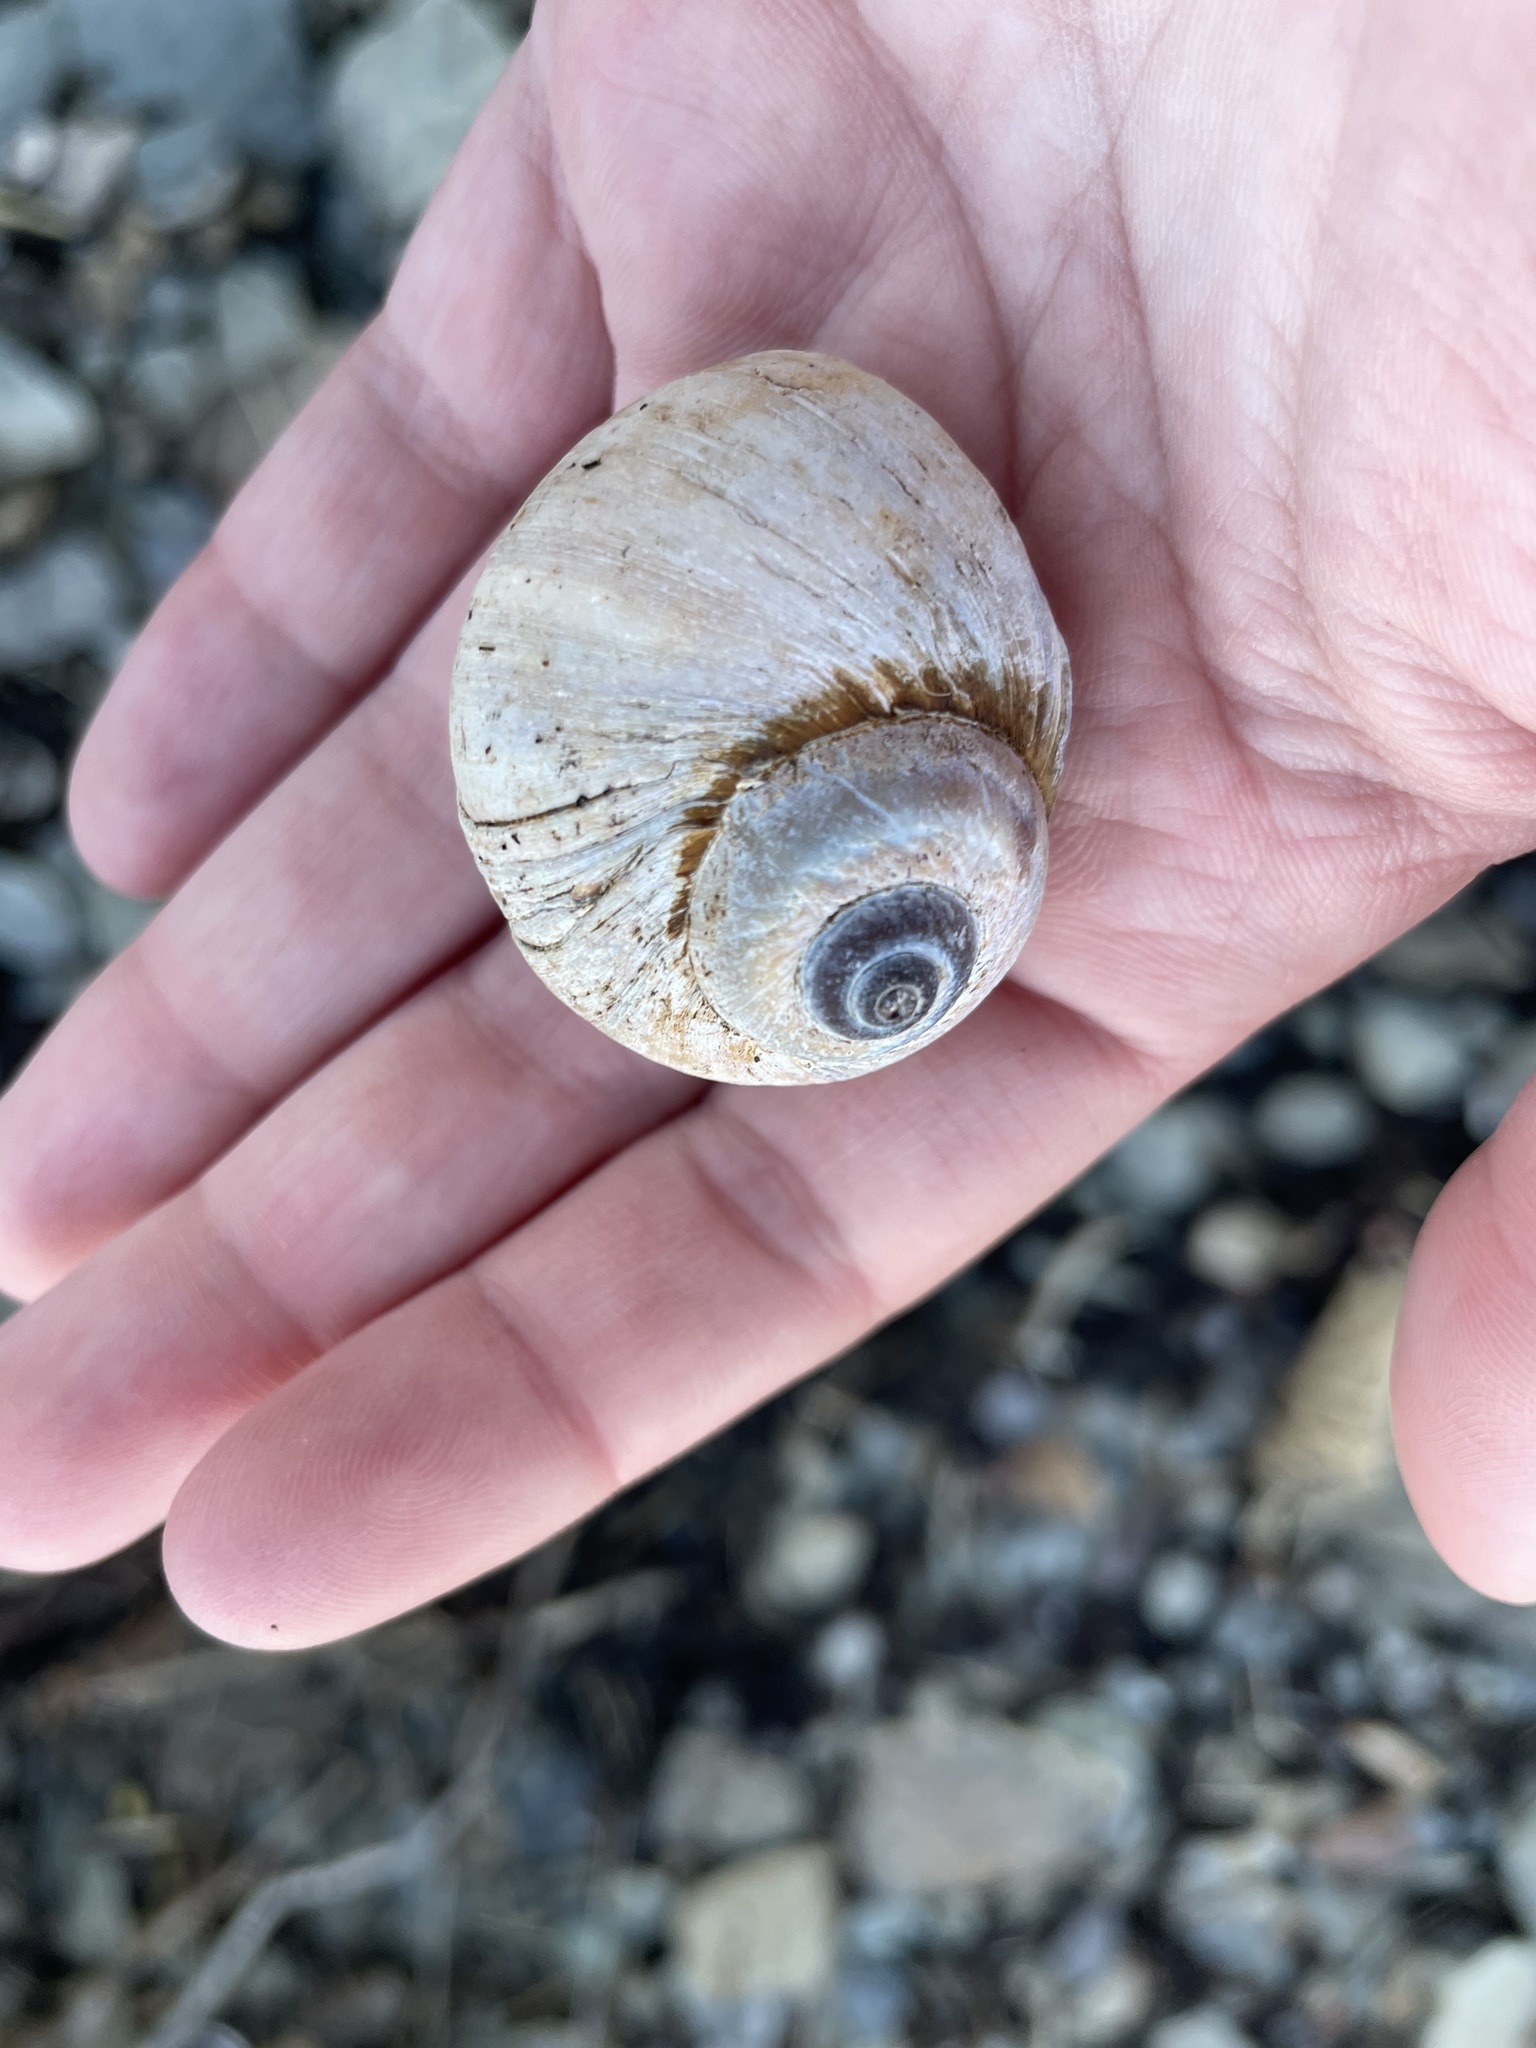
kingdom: Animalia
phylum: Mollusca
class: Gastropoda
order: Littorinimorpha
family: Naticidae
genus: Euspira
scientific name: Euspira heros
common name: Common northern moonsnail
